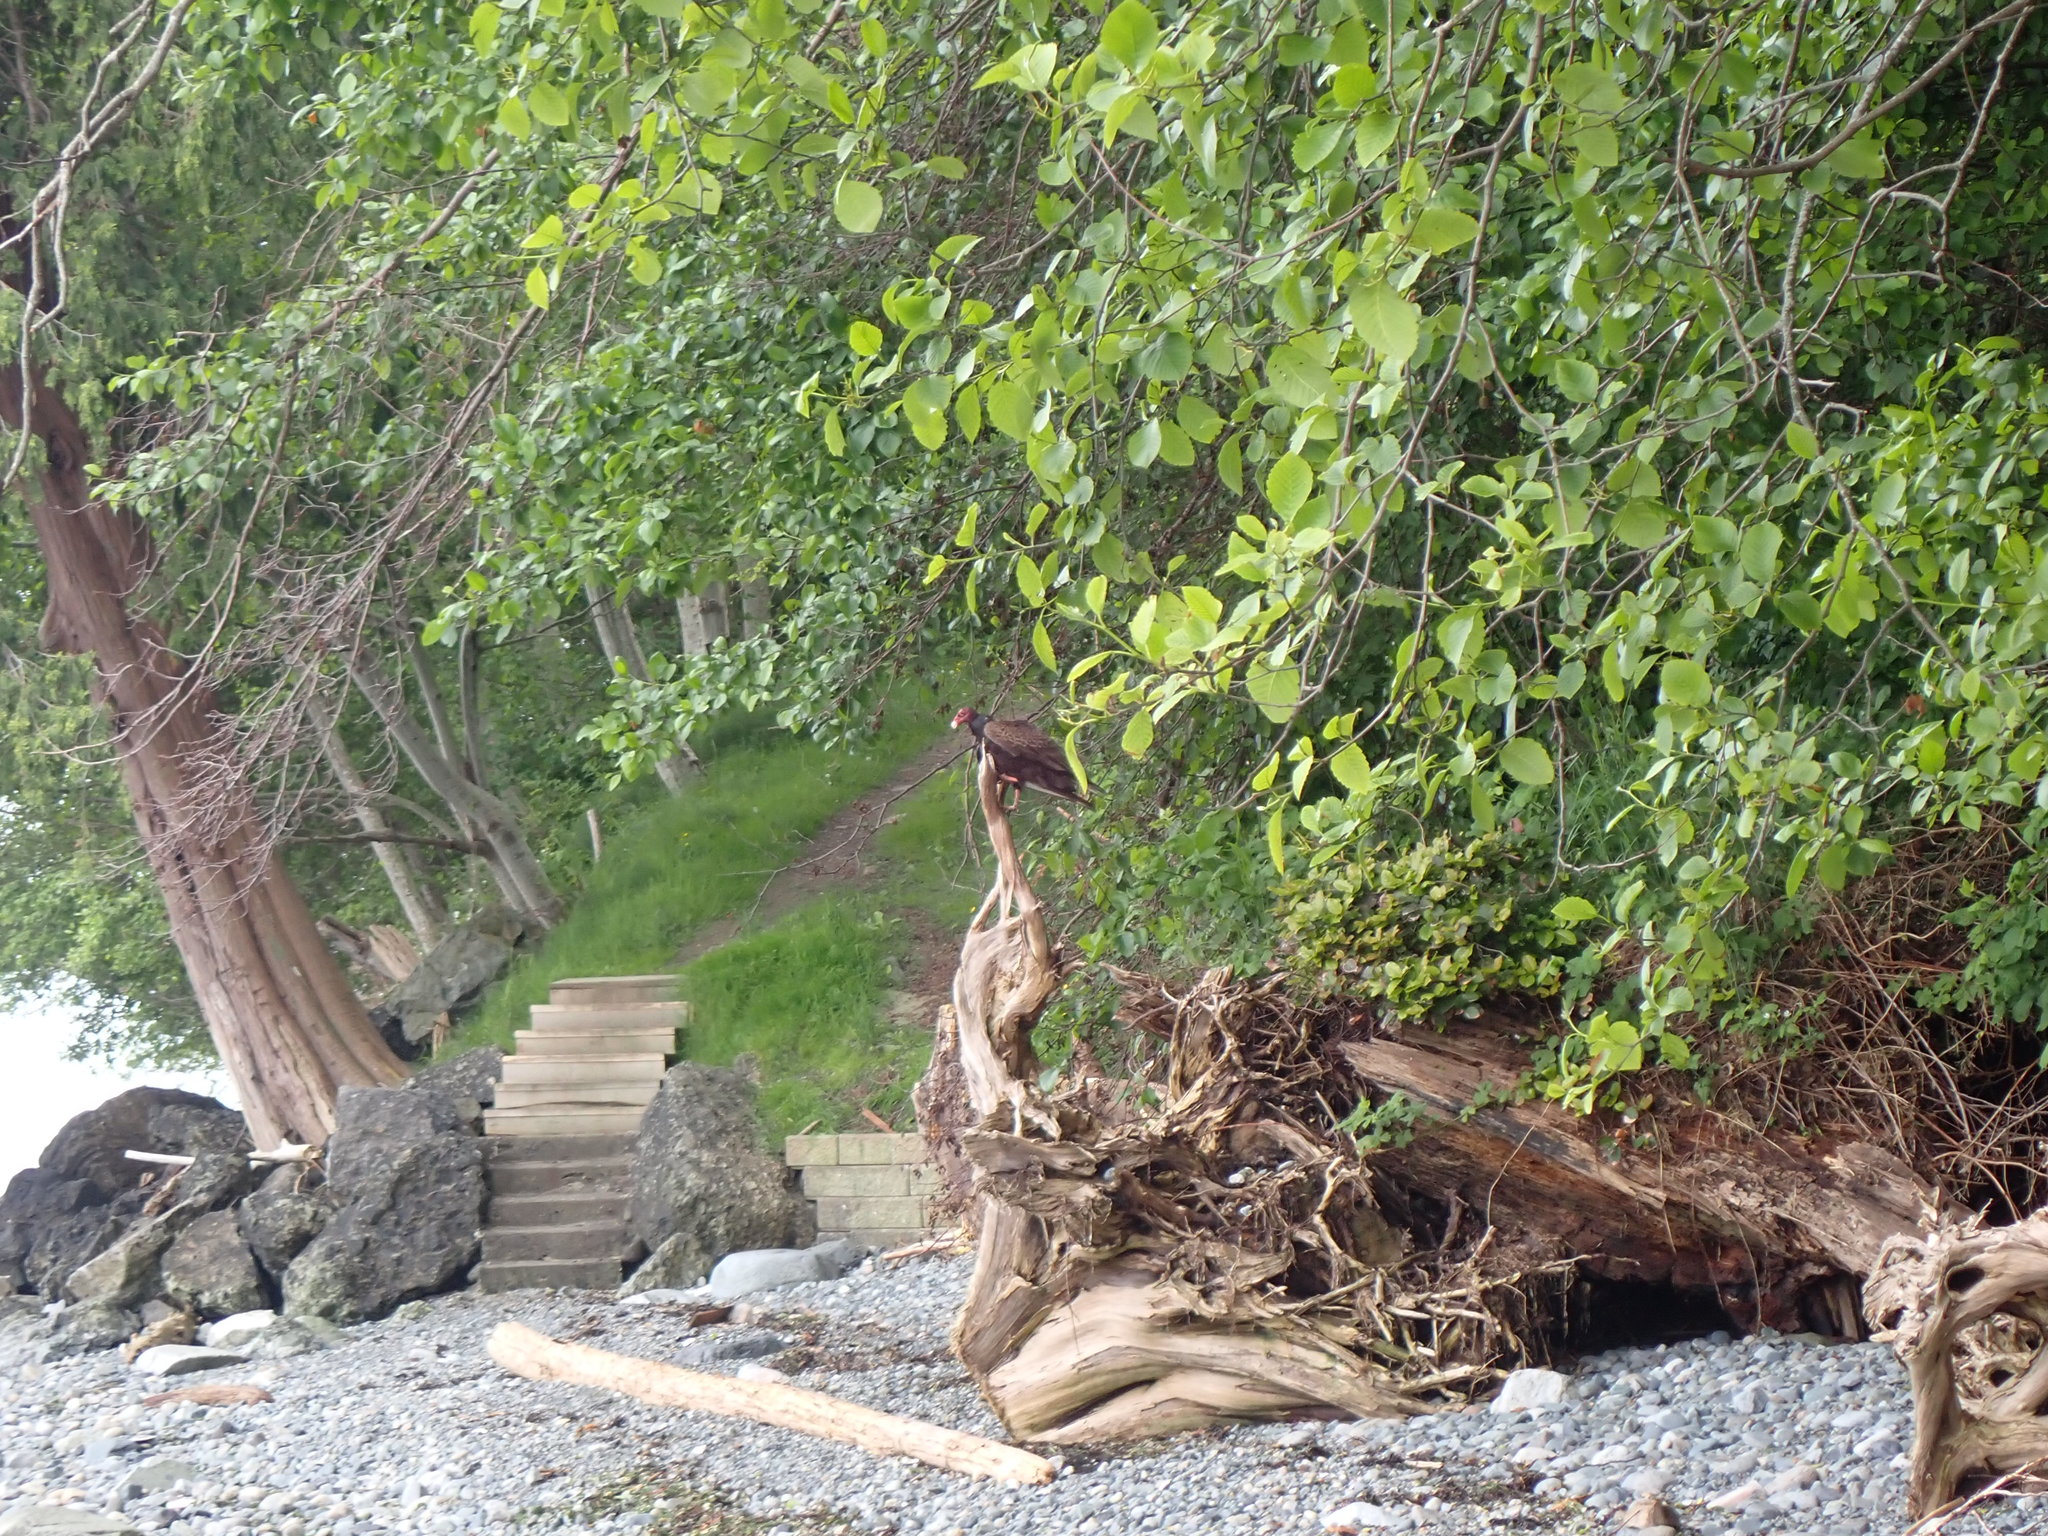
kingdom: Animalia
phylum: Chordata
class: Aves
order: Accipitriformes
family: Cathartidae
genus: Cathartes
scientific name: Cathartes aura
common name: Turkey vulture
